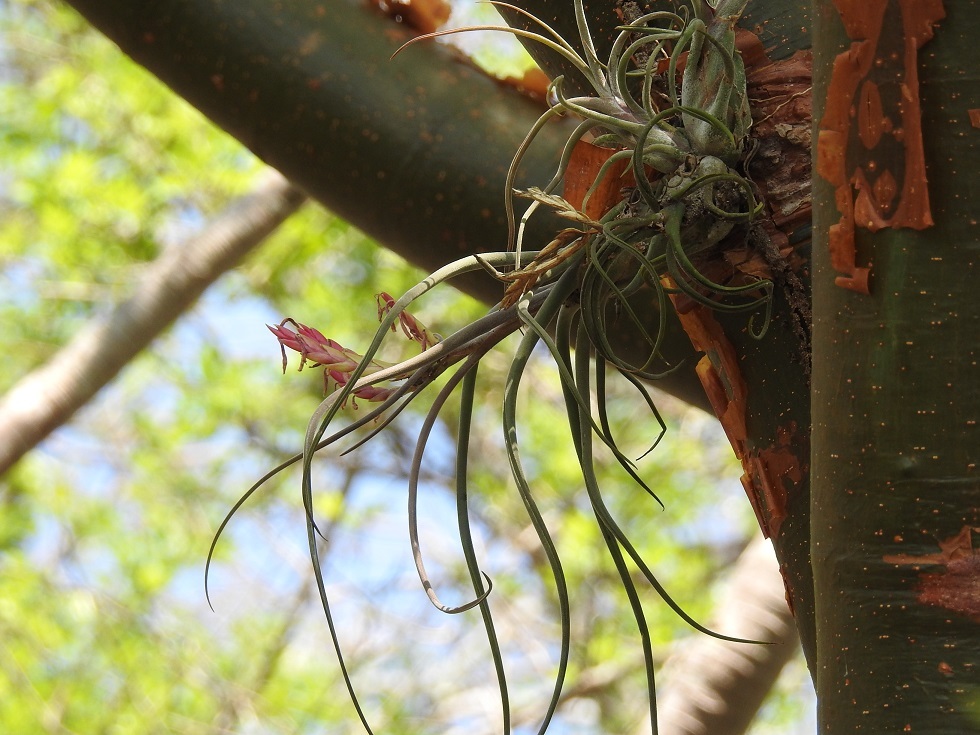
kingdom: Plantae
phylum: Tracheophyta
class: Liliopsida
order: Poales
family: Bromeliaceae
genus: Tillandsia
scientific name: Tillandsia caput-medusae
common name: Octopus plant
